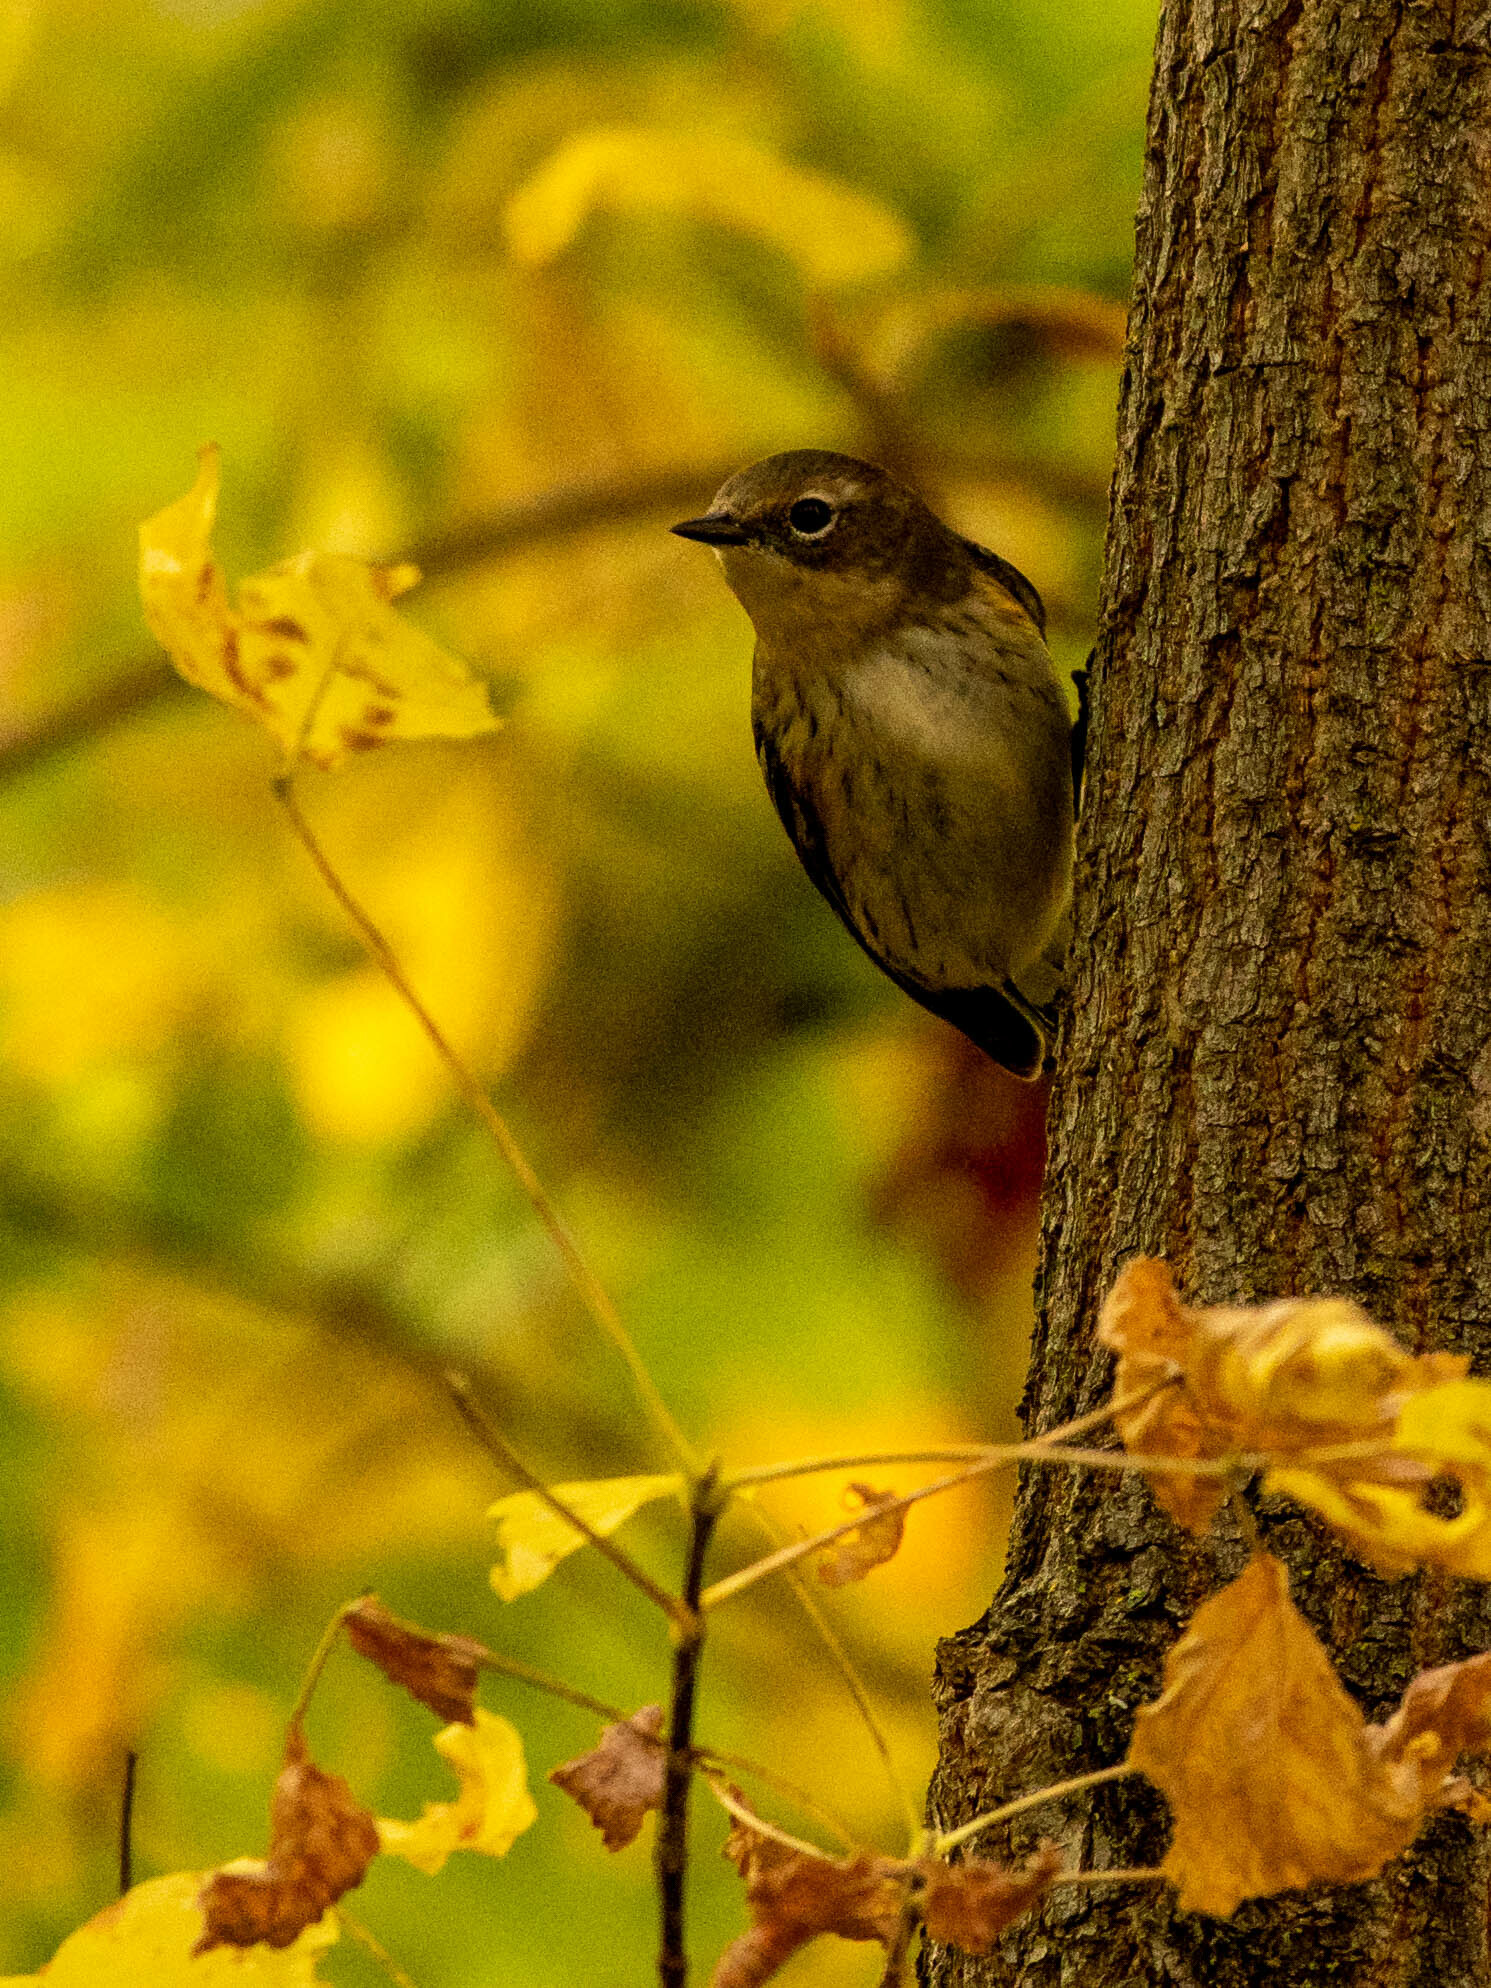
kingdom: Animalia
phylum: Chordata
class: Aves
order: Passeriformes
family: Parulidae
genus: Setophaga
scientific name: Setophaga coronata
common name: Myrtle warbler
